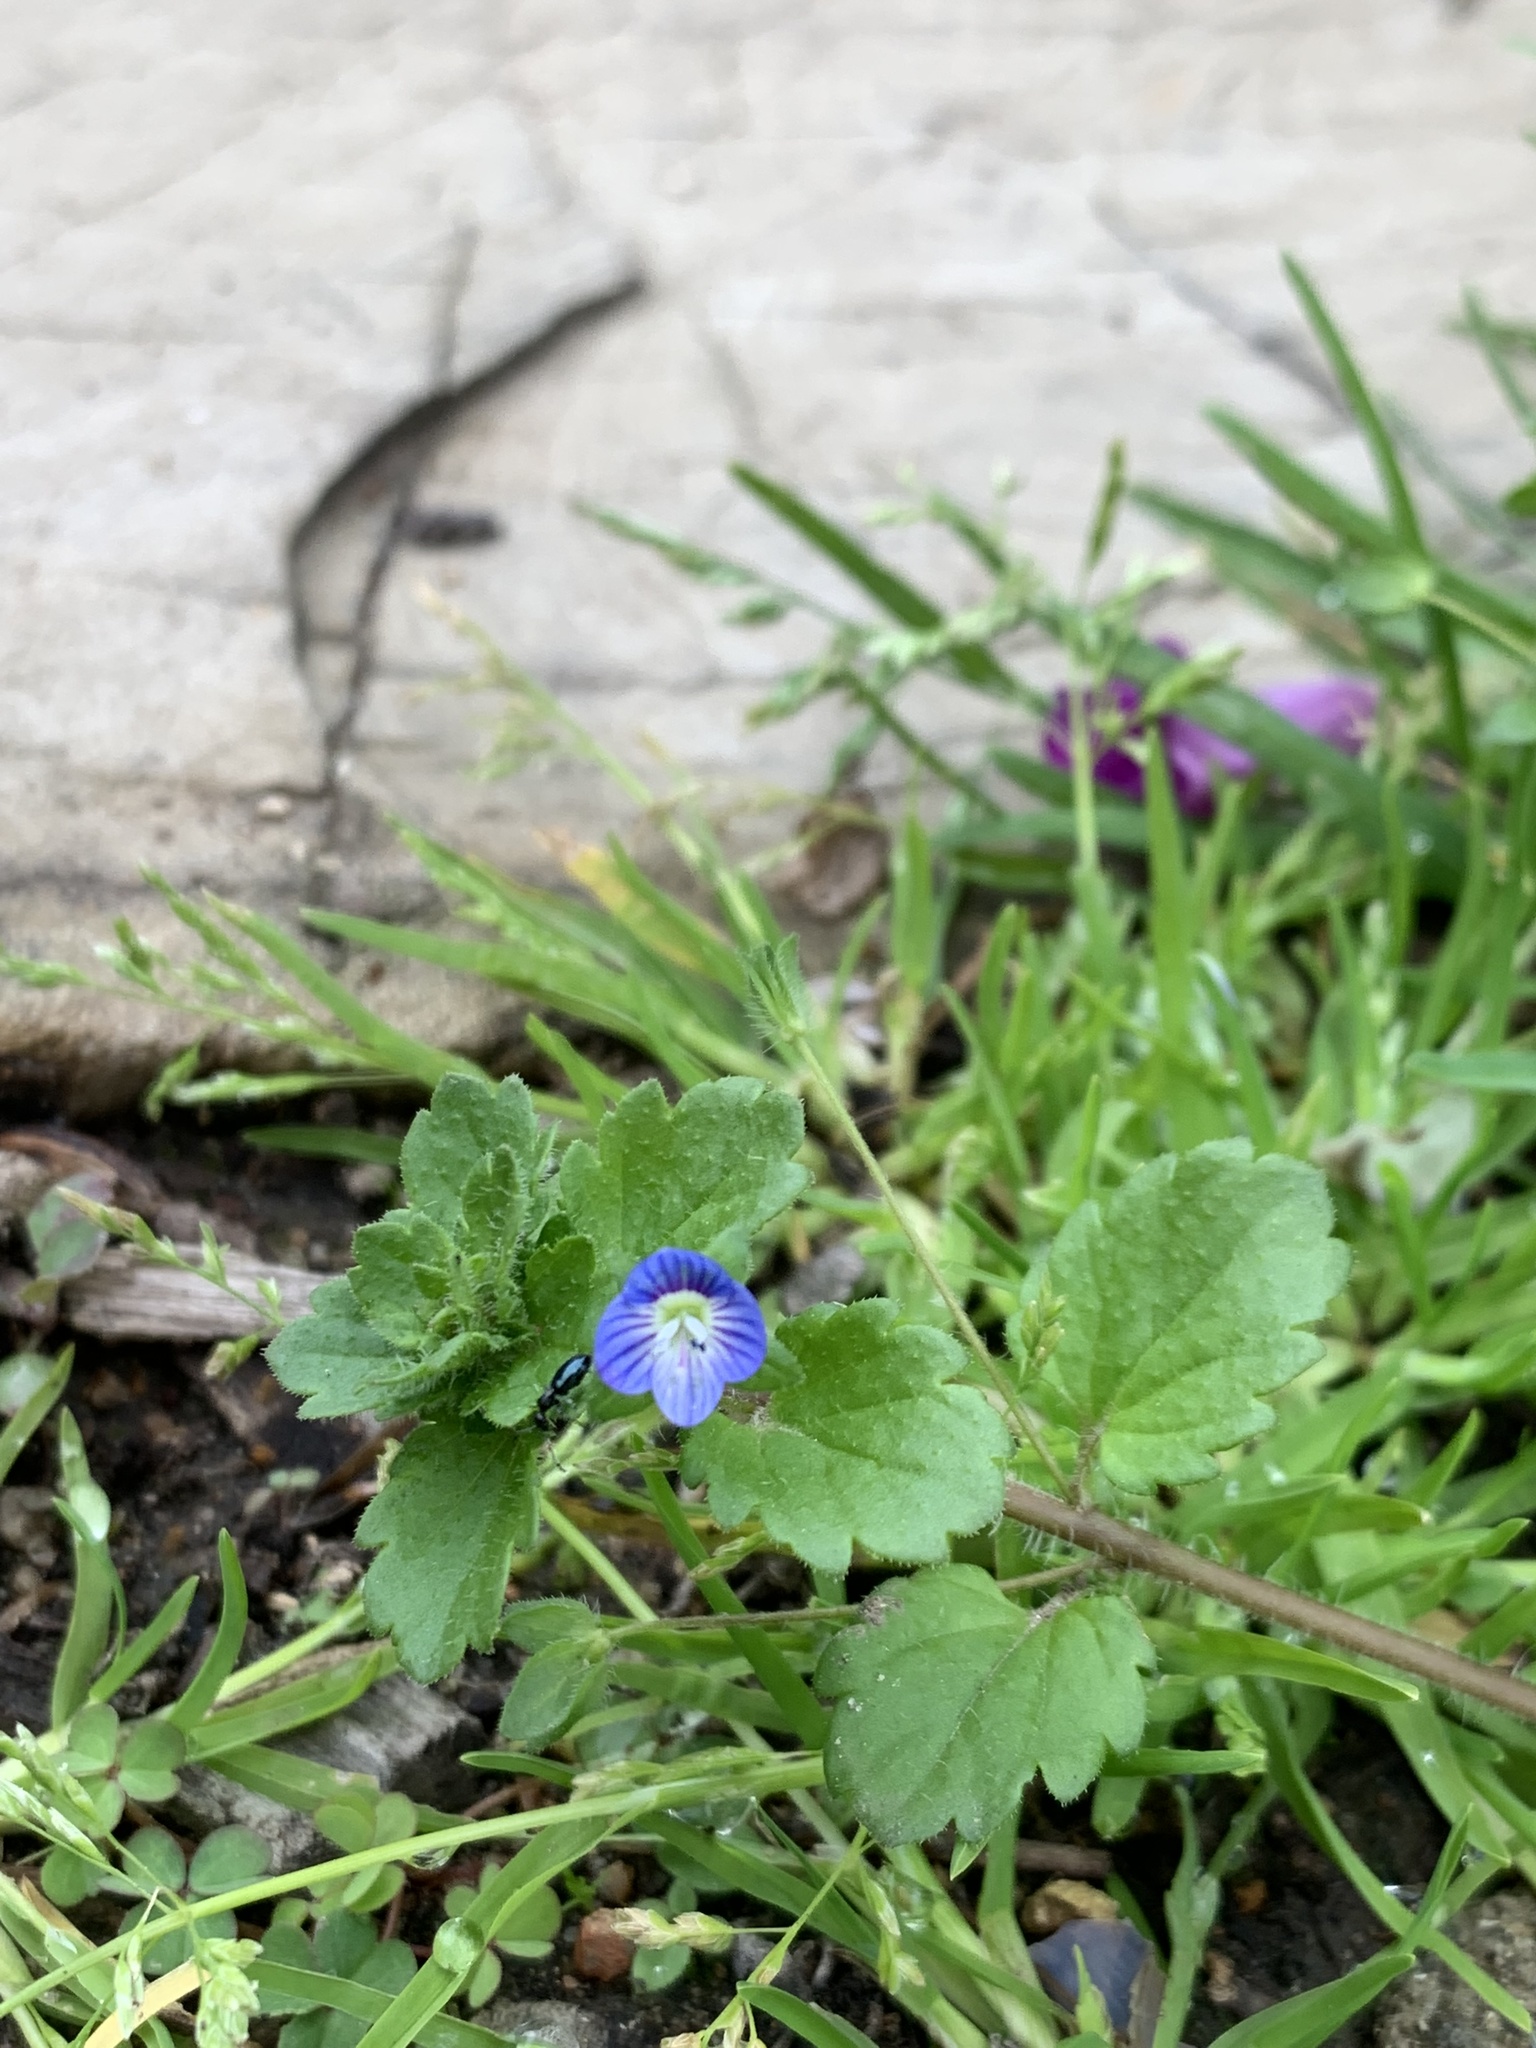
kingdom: Plantae
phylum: Tracheophyta
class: Magnoliopsida
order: Lamiales
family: Plantaginaceae
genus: Veronica
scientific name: Veronica persica
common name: Common field-speedwell
